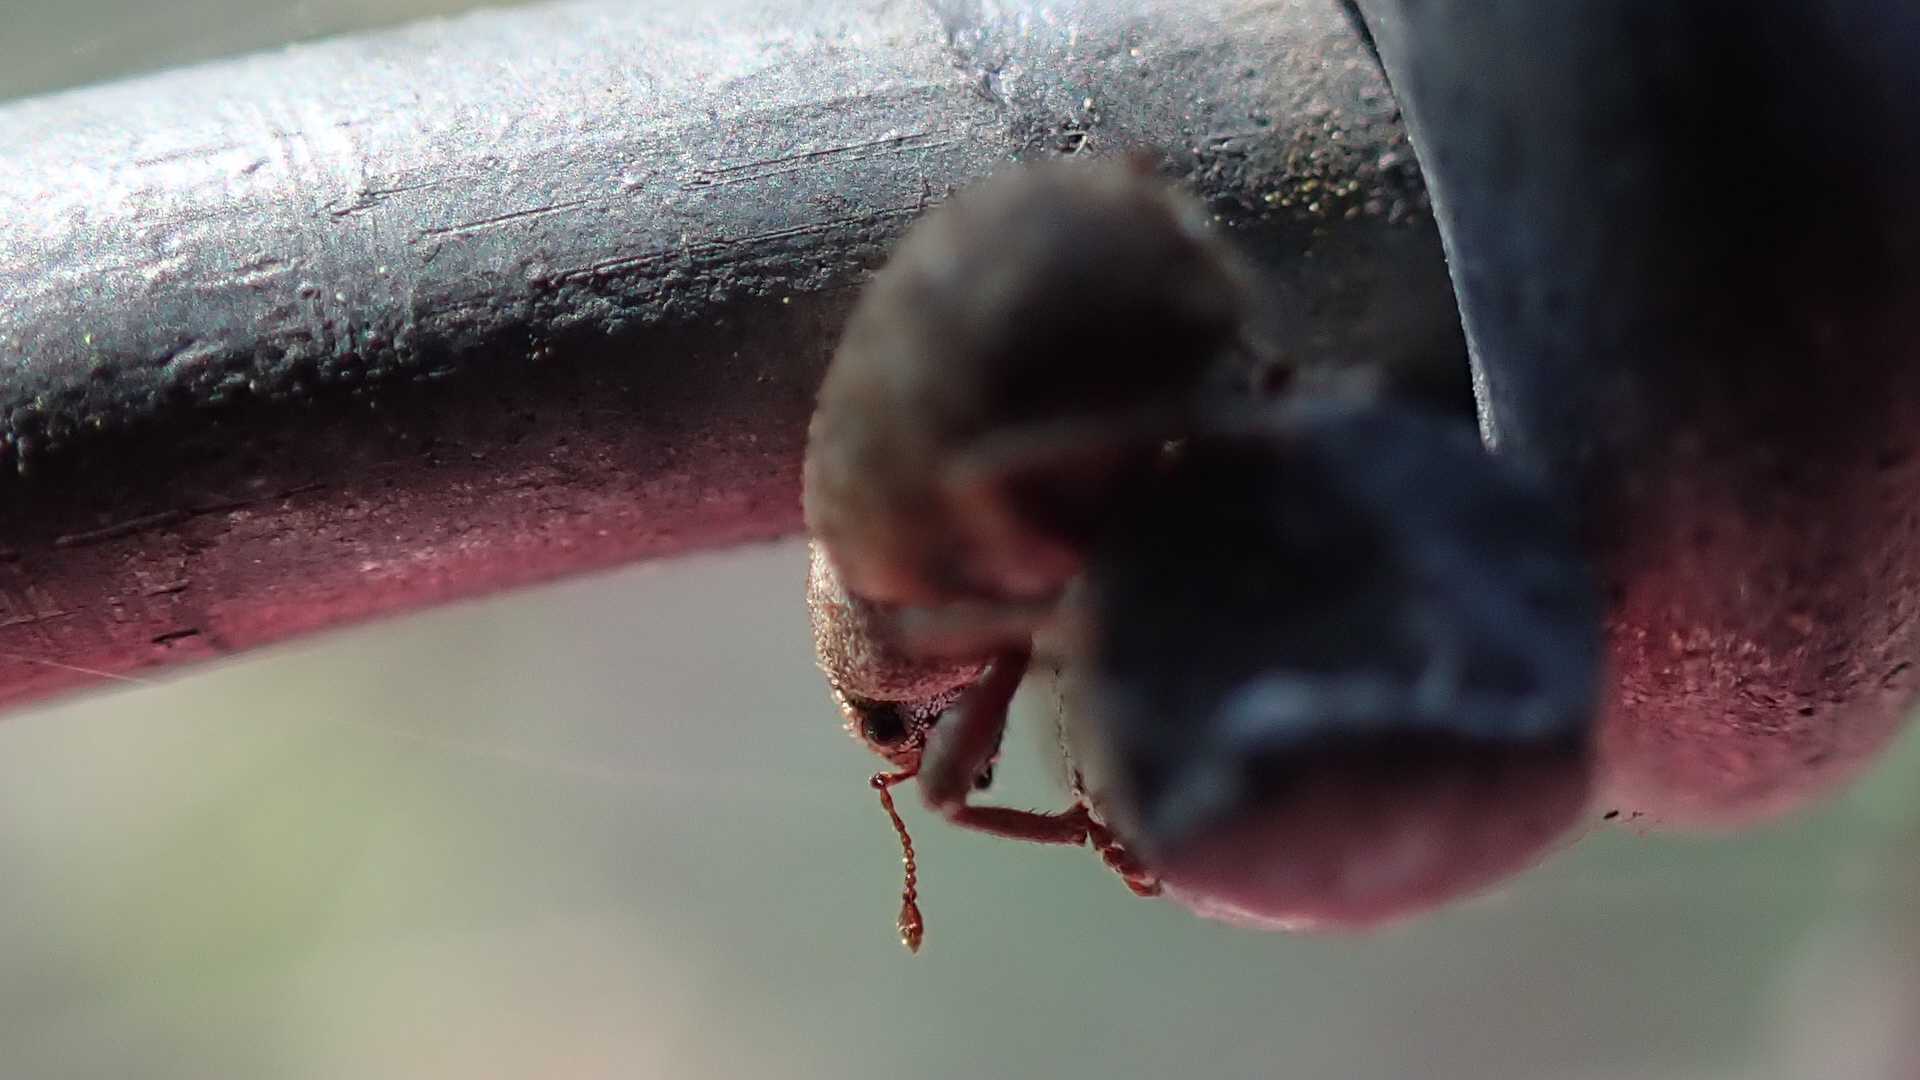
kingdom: Animalia
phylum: Arthropoda
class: Insecta
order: Coleoptera
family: Curculionidae
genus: Strophosoma
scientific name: Strophosoma capitatum
